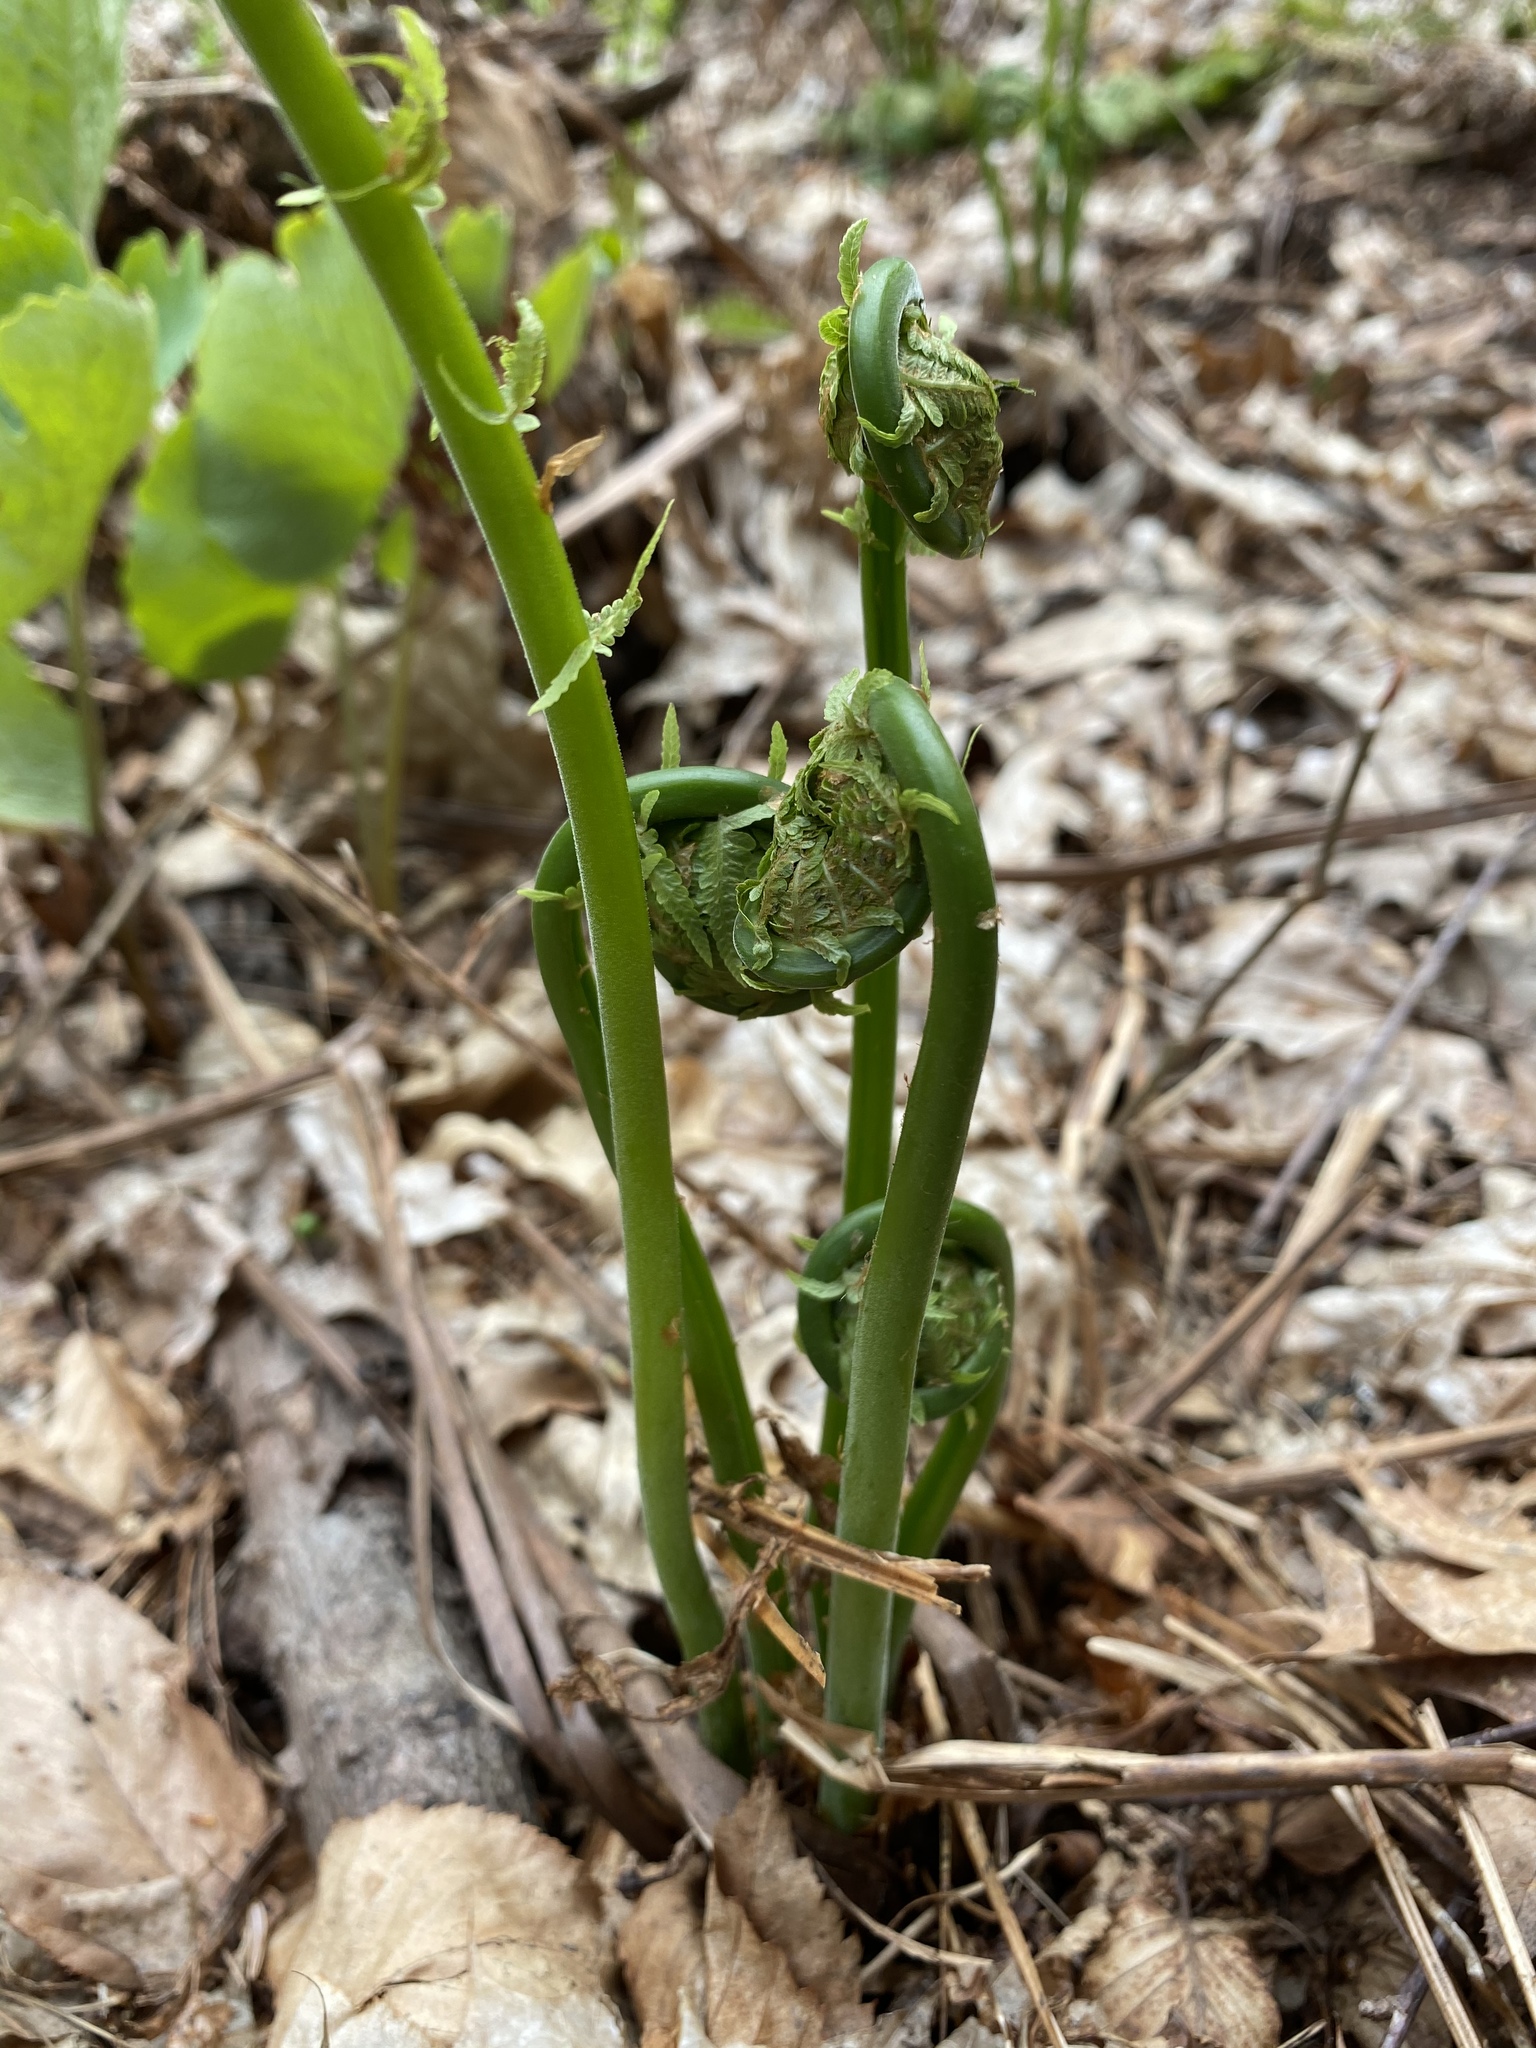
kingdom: Plantae
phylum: Tracheophyta
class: Polypodiopsida
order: Polypodiales
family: Onocleaceae
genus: Matteuccia
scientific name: Matteuccia struthiopteris
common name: Ostrich fern
